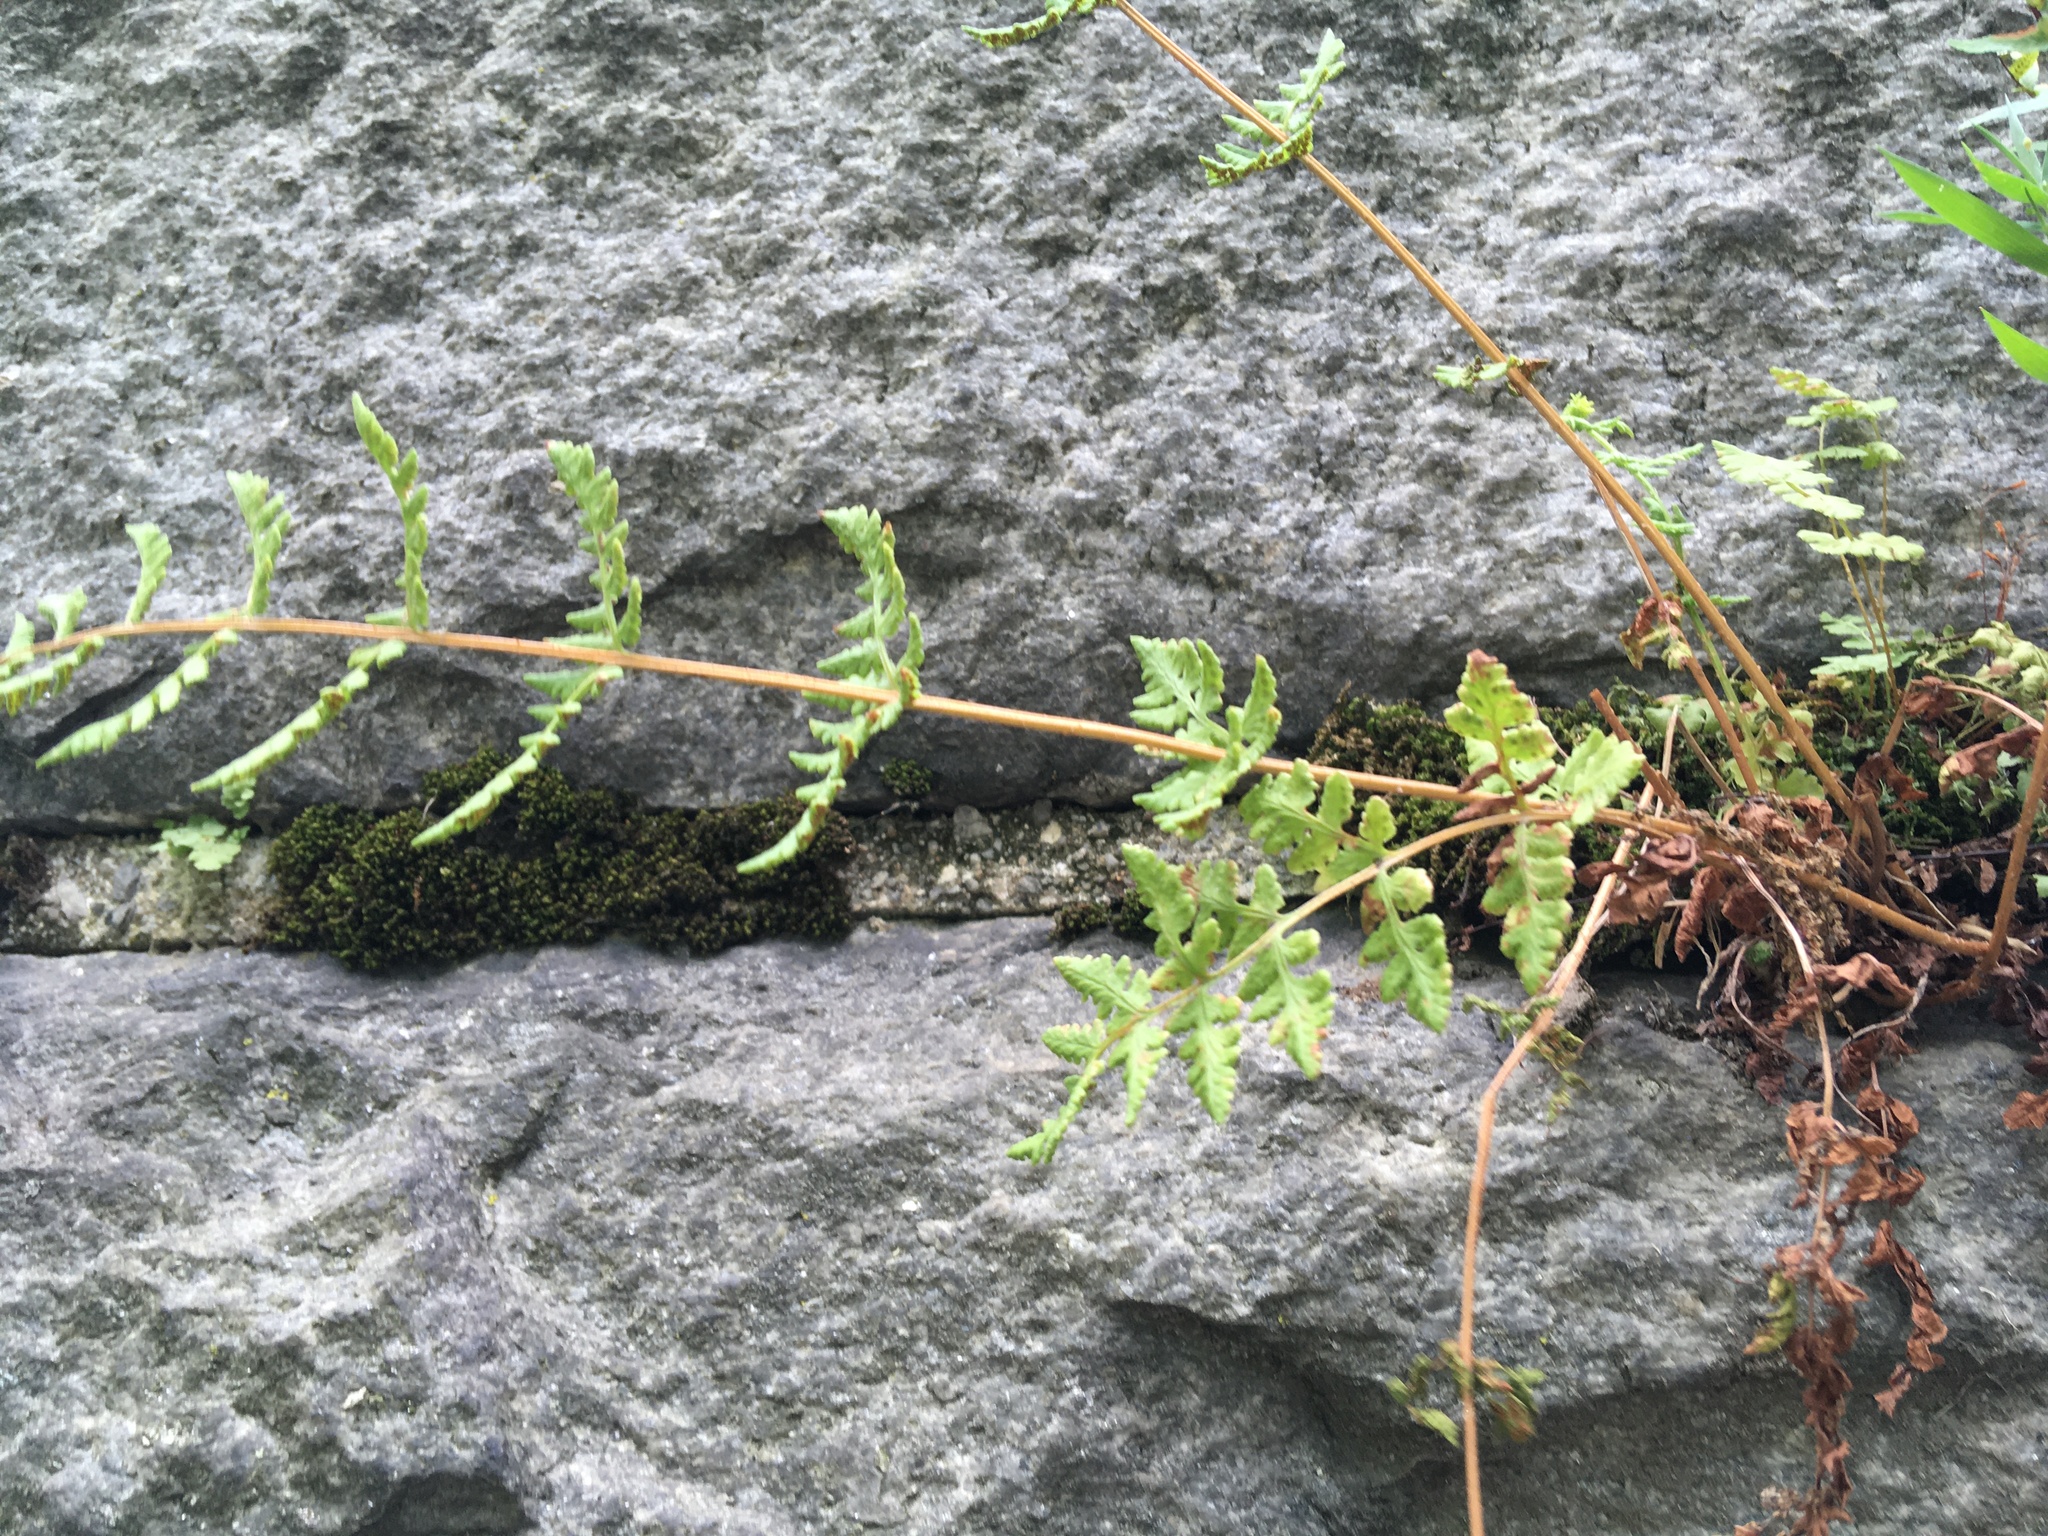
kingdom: Plantae
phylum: Tracheophyta
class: Polypodiopsida
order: Polypodiales
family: Woodsiaceae
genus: Physematium
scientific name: Physematium obtusum
